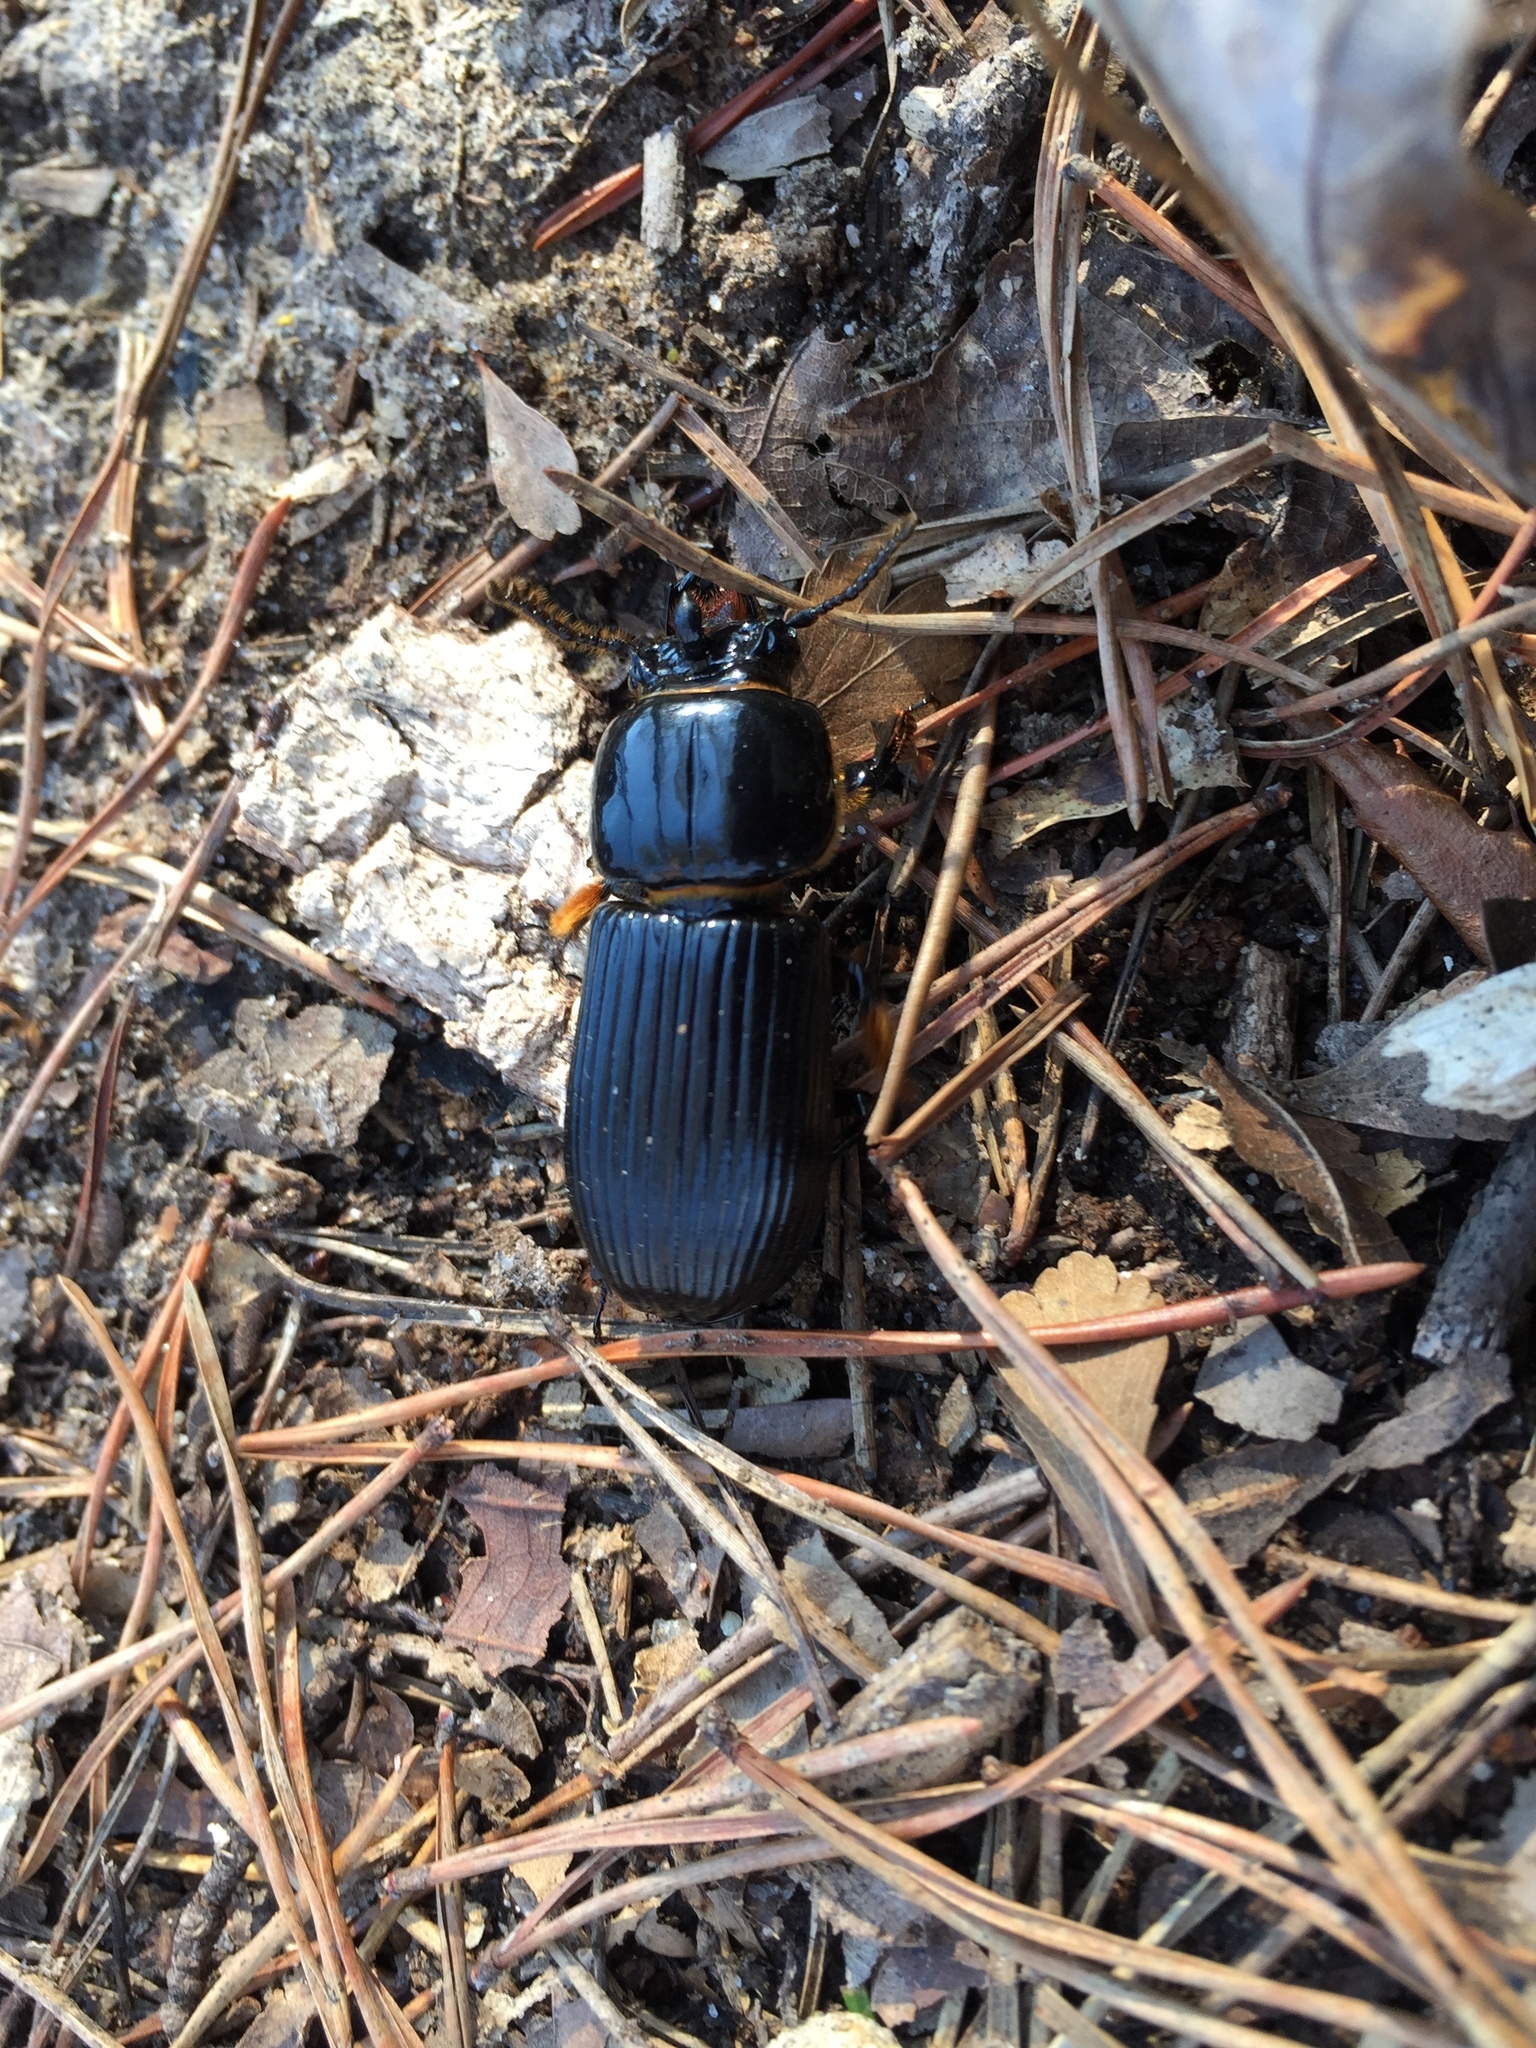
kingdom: Animalia
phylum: Arthropoda
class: Insecta
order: Coleoptera
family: Passalidae
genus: Odontotaenius
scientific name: Odontotaenius disjunctus
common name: Patent leather beetle
